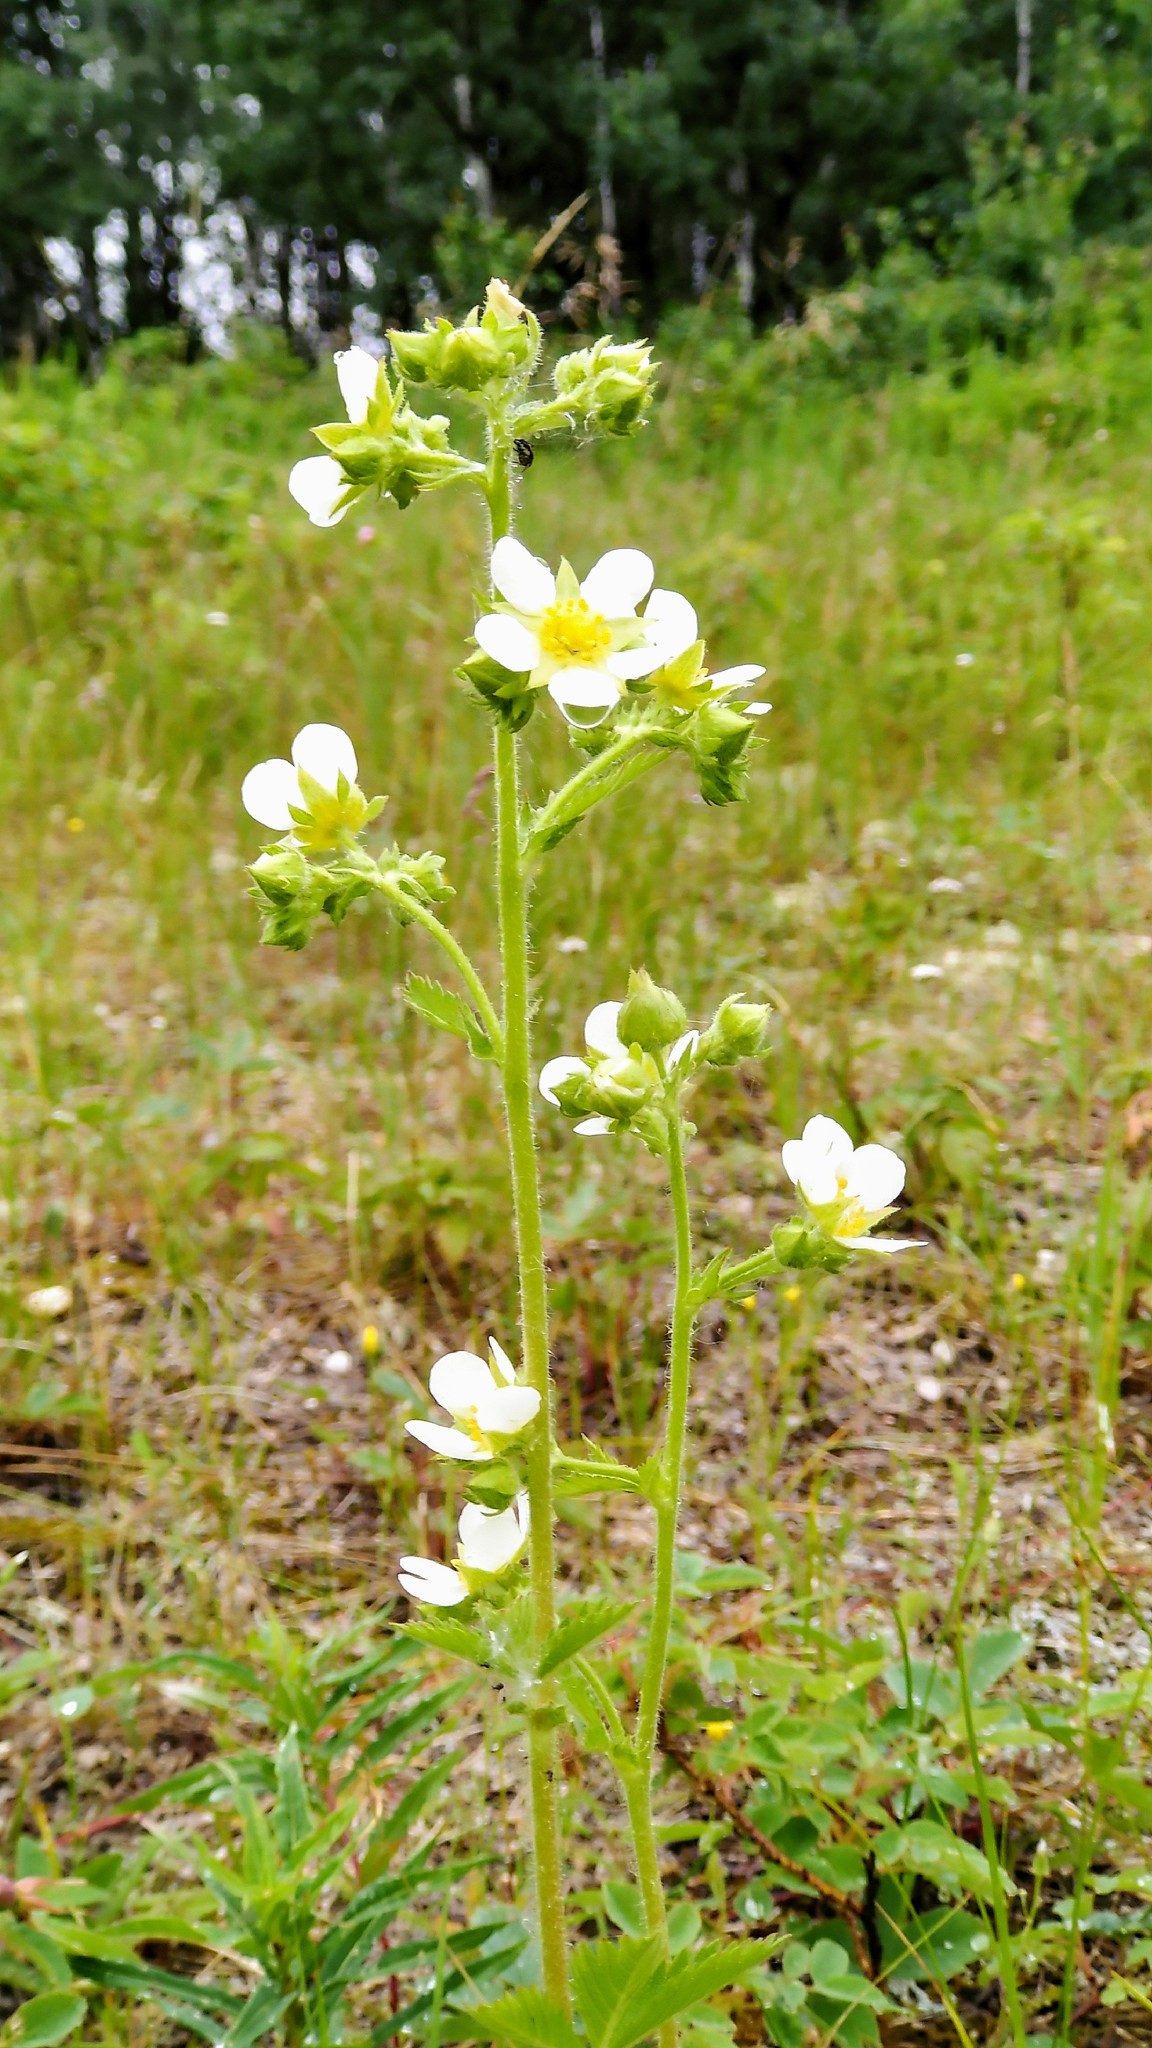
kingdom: Plantae
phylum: Tracheophyta
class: Magnoliopsida
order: Rosales
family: Rosaceae
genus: Drymocallis
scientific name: Drymocallis arguta
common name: Tall cinquefoil
